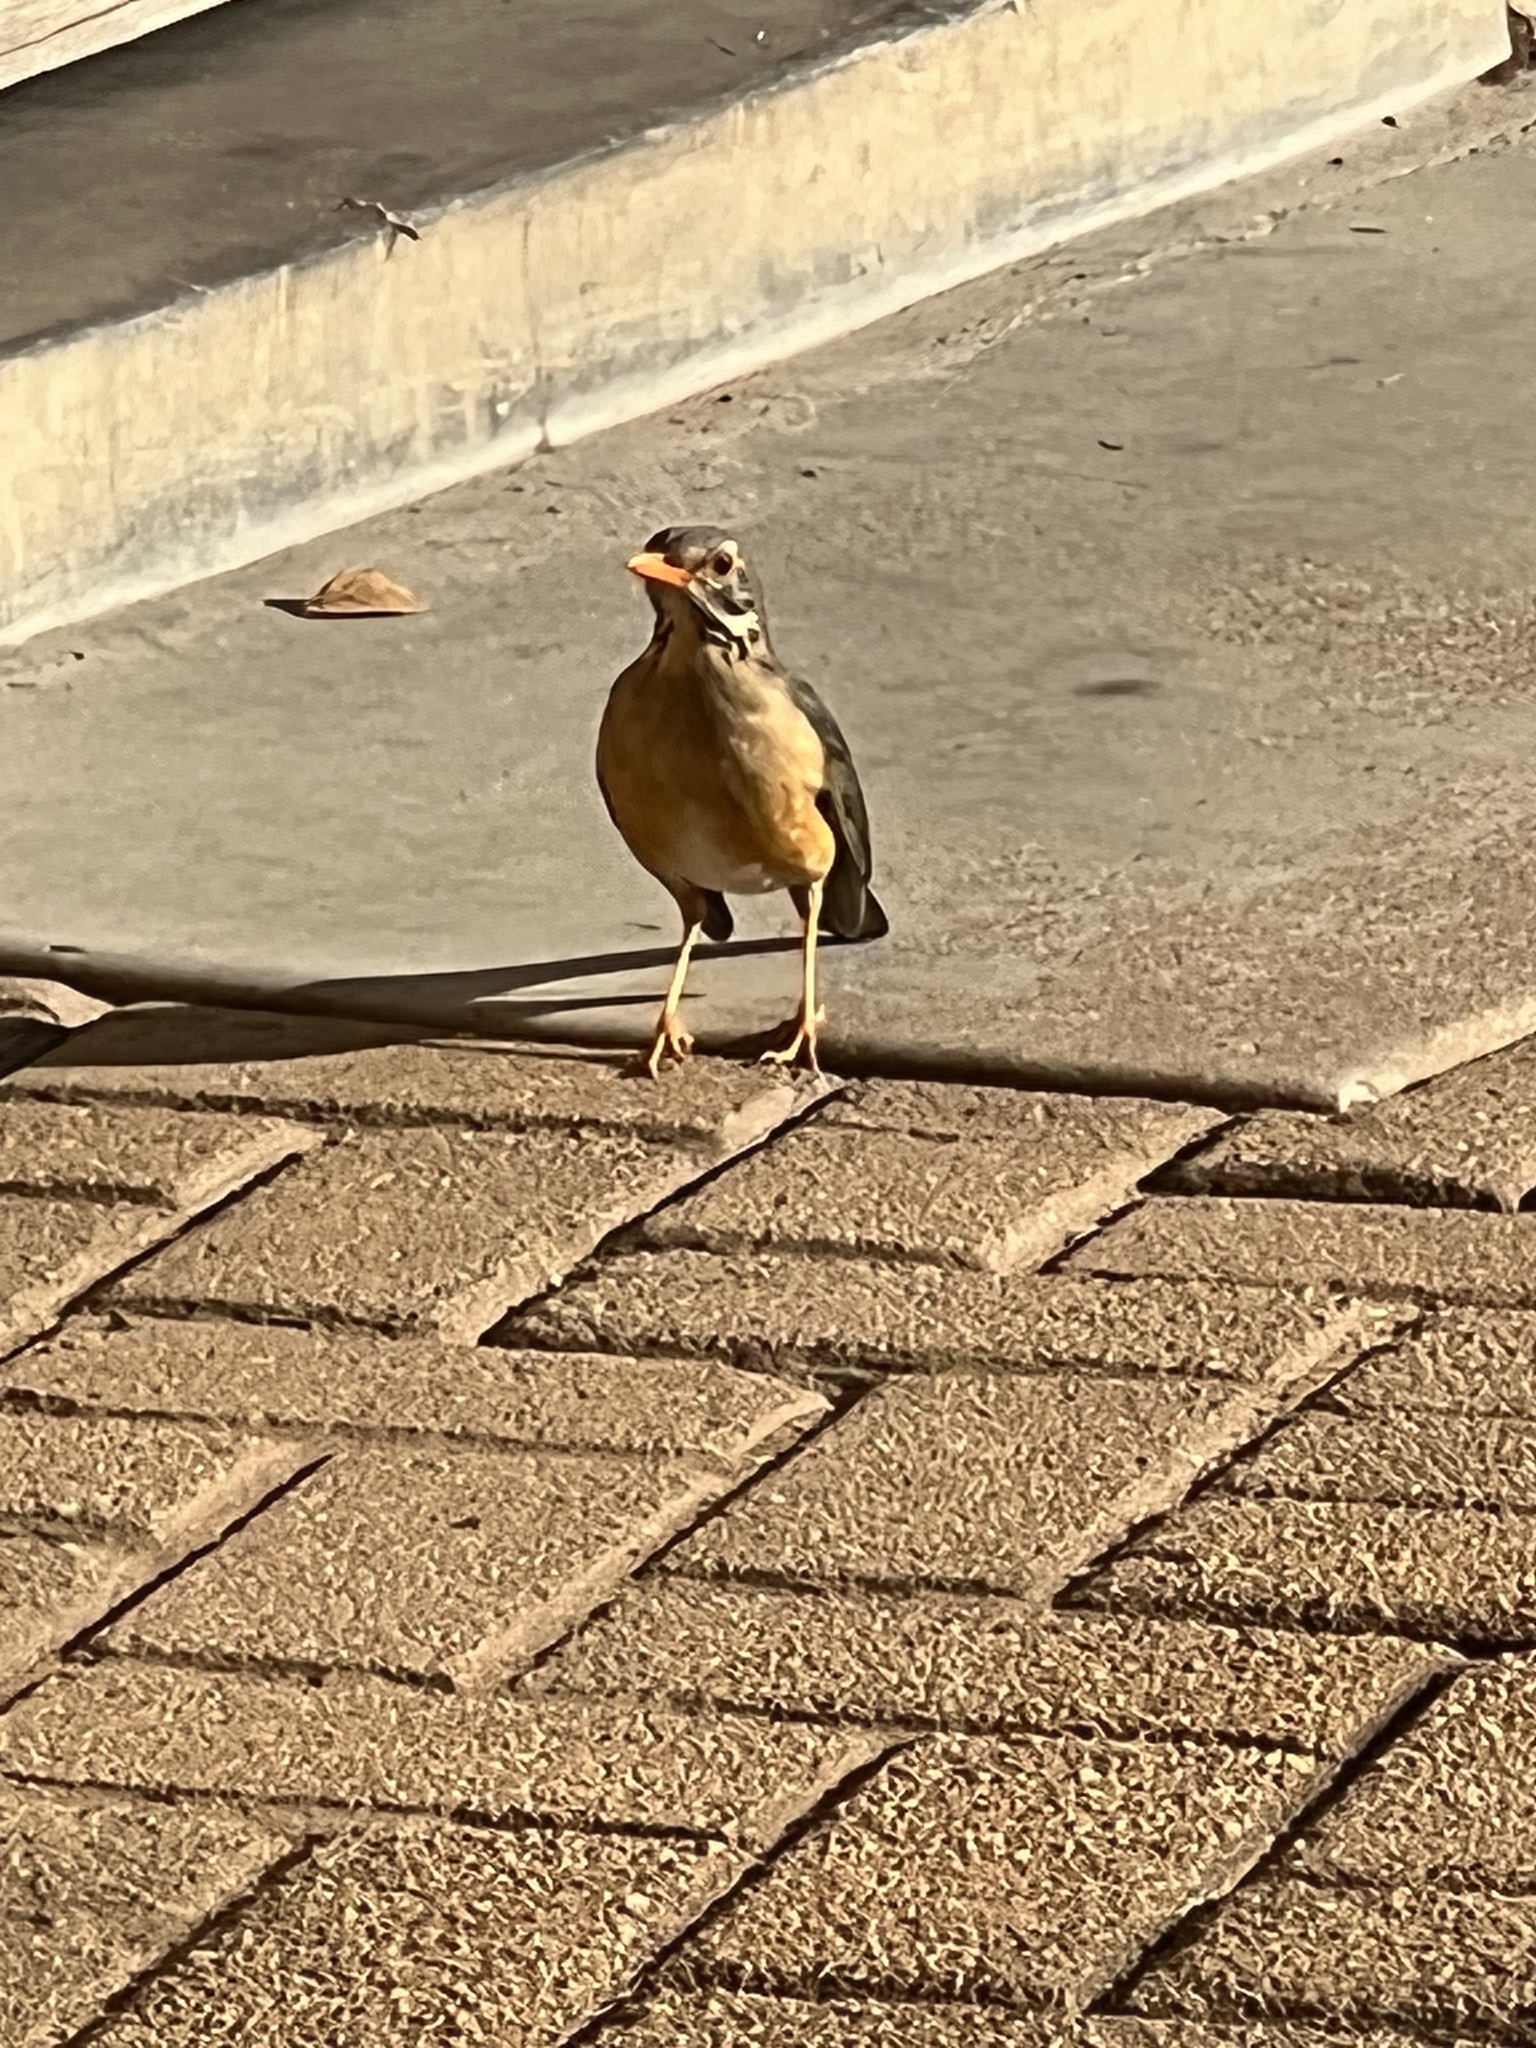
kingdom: Animalia
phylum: Chordata
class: Aves
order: Passeriformes
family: Turdidae
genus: Turdus
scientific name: Turdus libonyana
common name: Kurrichane thrush
